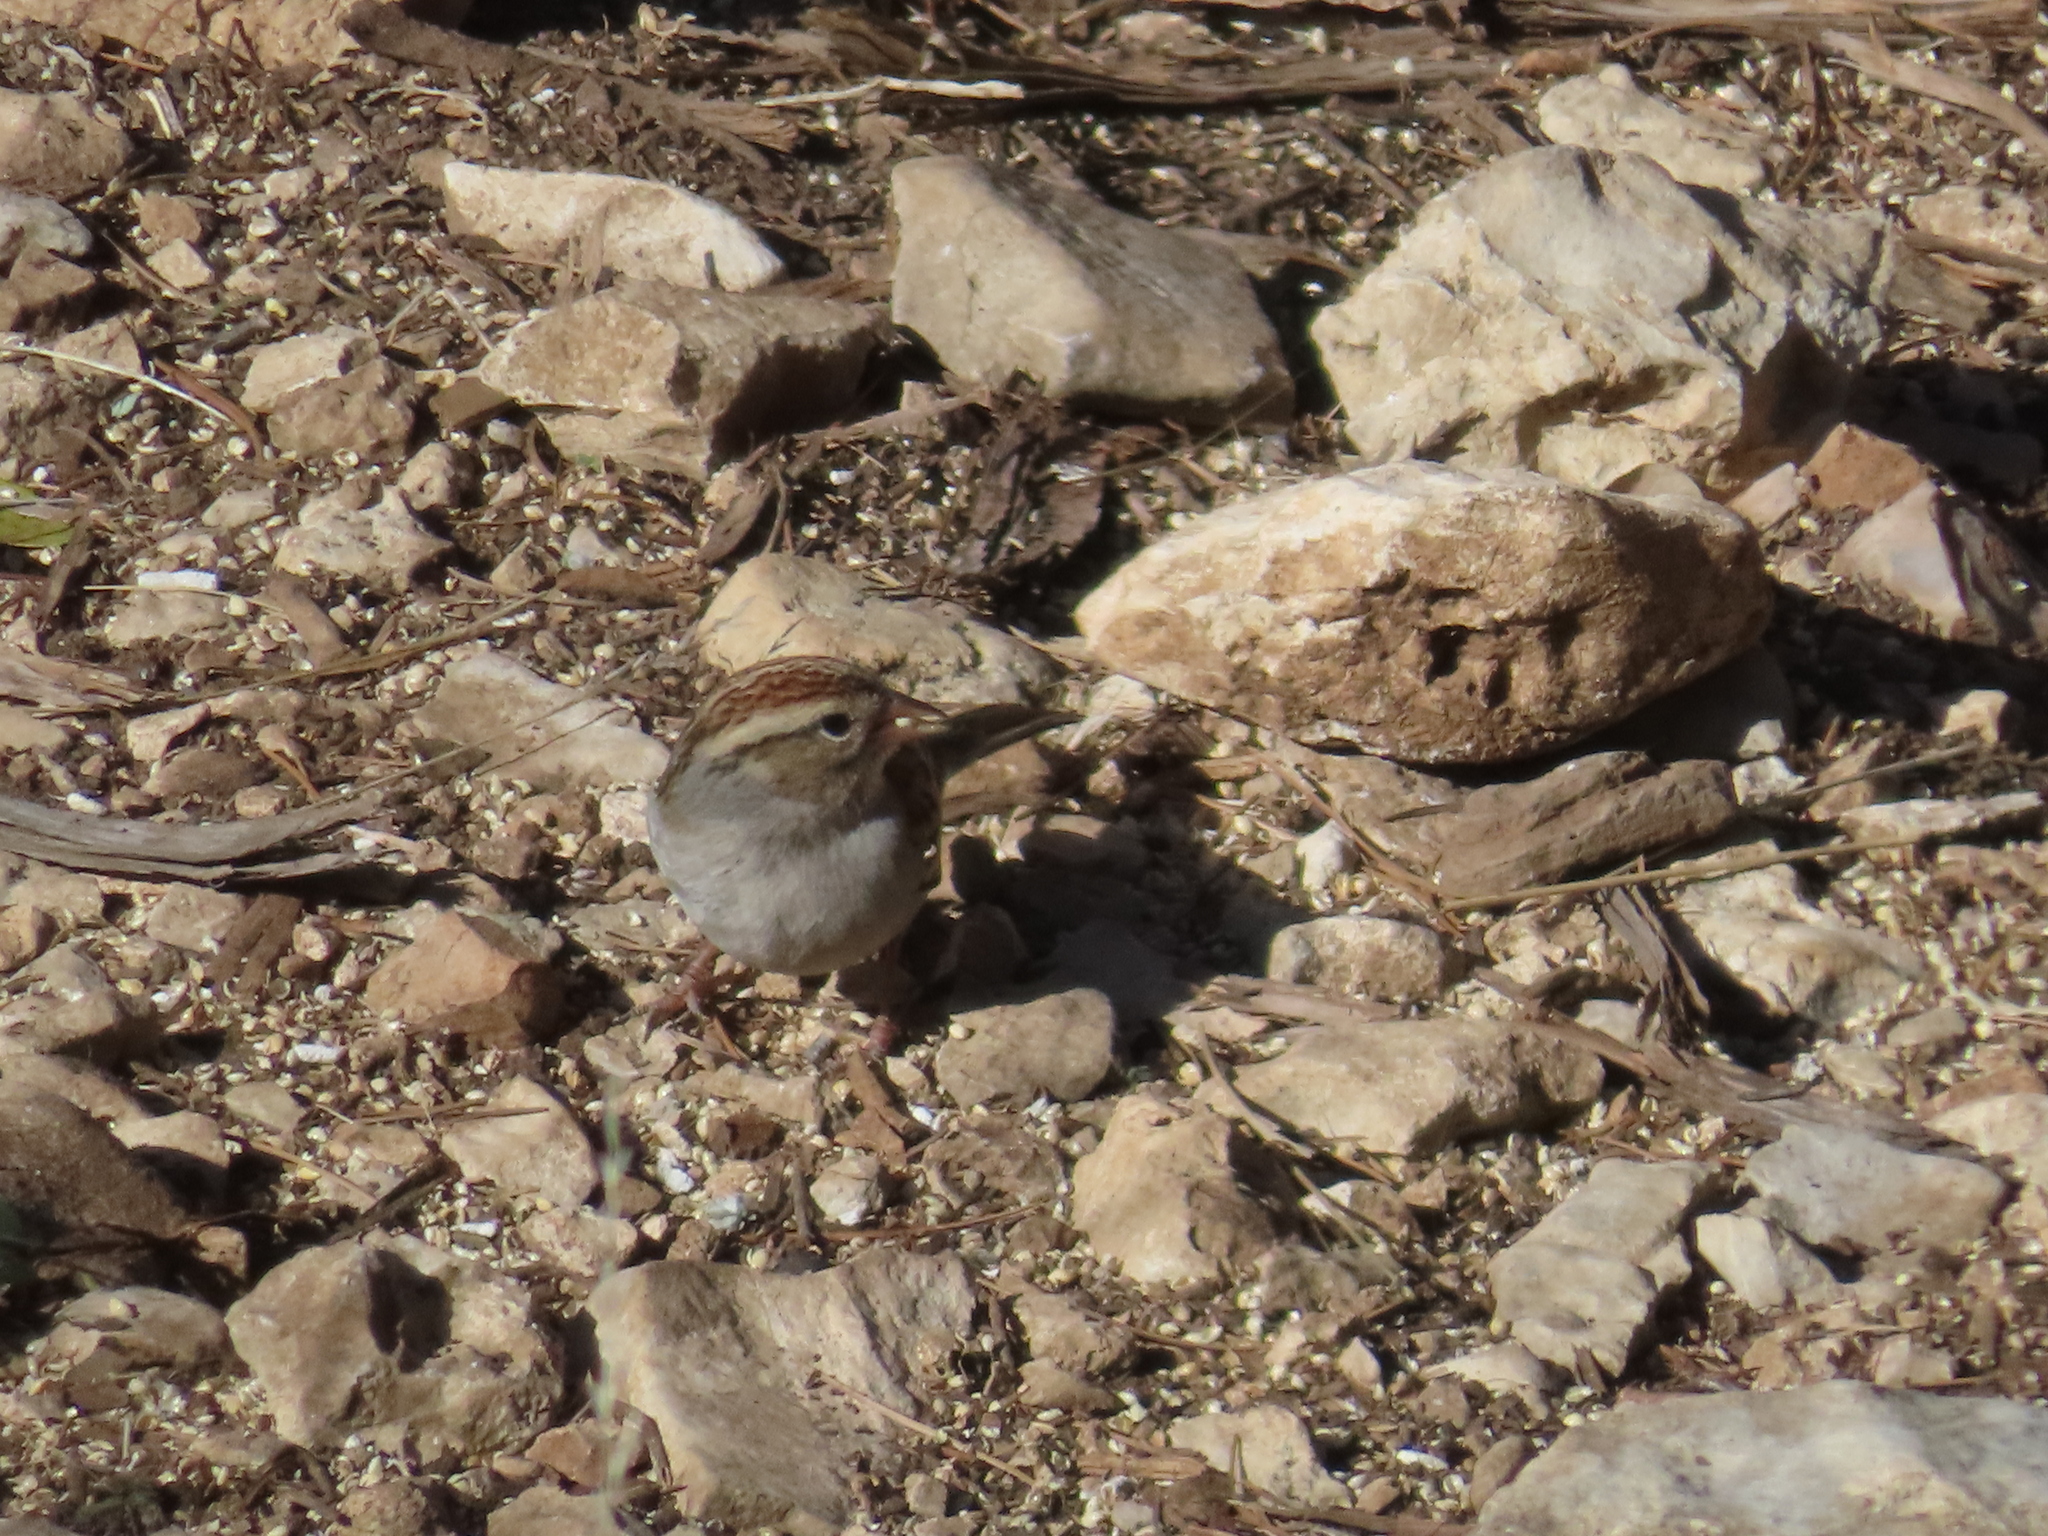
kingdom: Animalia
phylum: Chordata
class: Aves
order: Passeriformes
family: Passerellidae
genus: Spizella
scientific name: Spizella passerina
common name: Chipping sparrow
